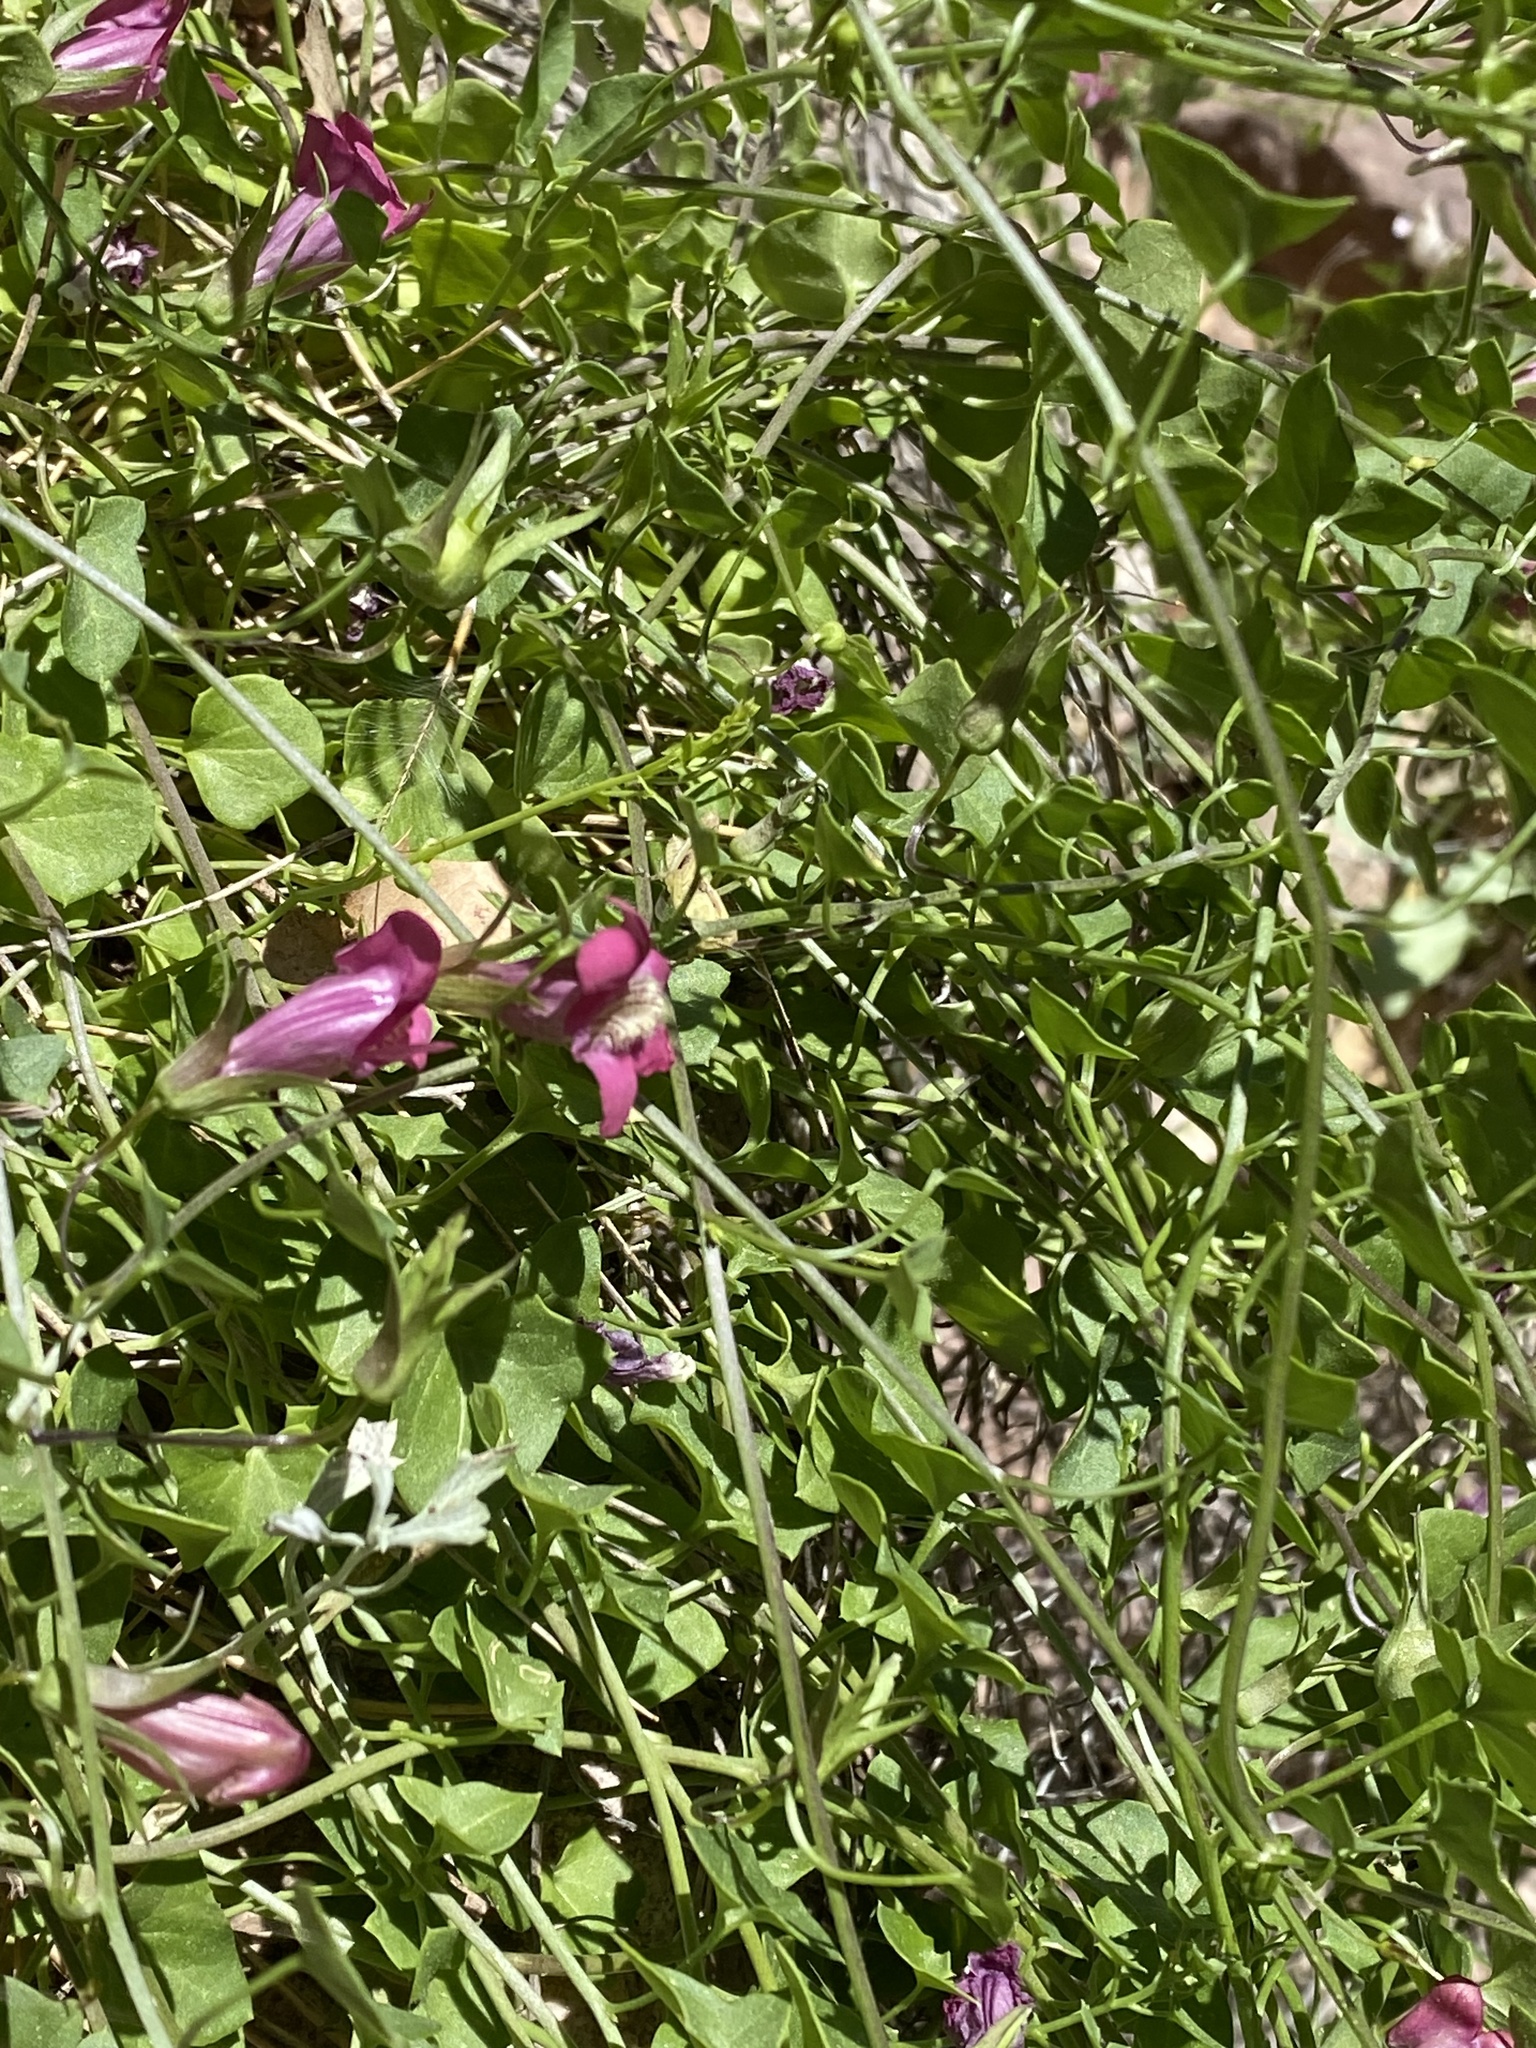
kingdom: Plantae
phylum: Tracheophyta
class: Magnoliopsida
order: Lamiales
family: Plantaginaceae
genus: Maurandella
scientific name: Maurandella antirrhiniflora
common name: Violet twining-snapdragon
